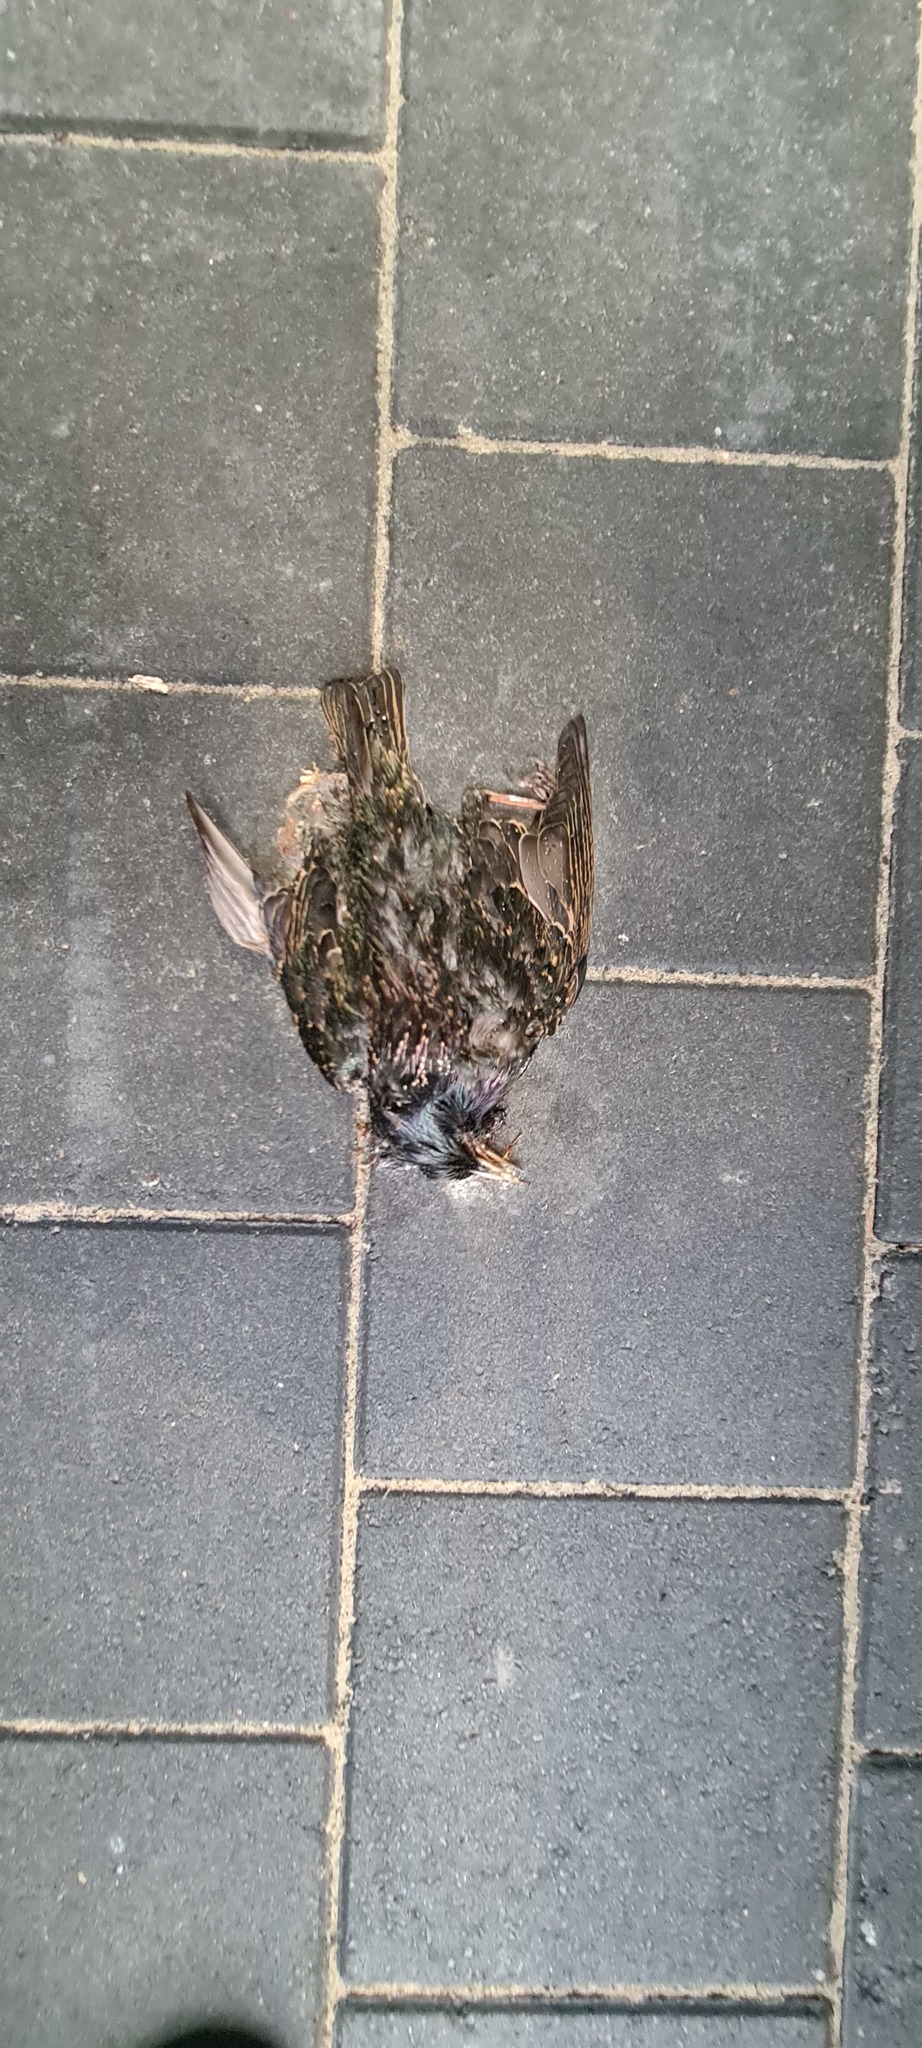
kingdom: Animalia
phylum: Chordata
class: Aves
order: Passeriformes
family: Sturnidae
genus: Sturnus
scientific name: Sturnus vulgaris
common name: Common starling
